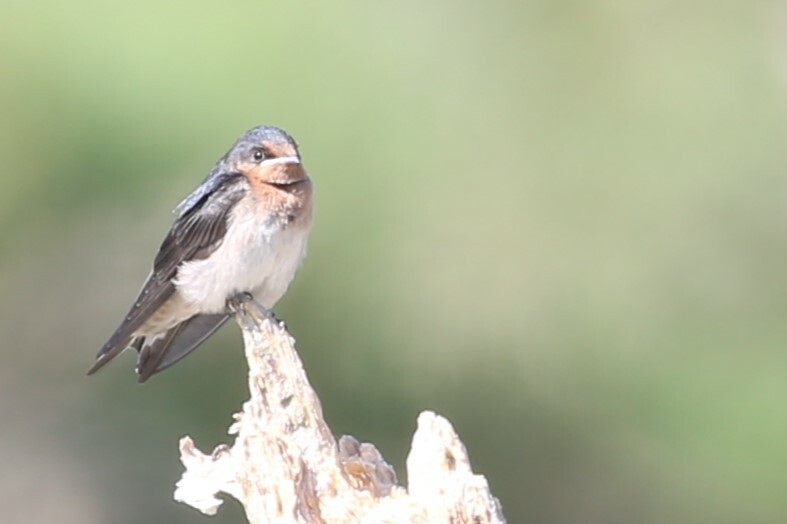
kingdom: Animalia
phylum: Chordata
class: Aves
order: Passeriformes
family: Hirundinidae
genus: Hirundo
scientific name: Hirundo neoxena
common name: Welcome swallow
